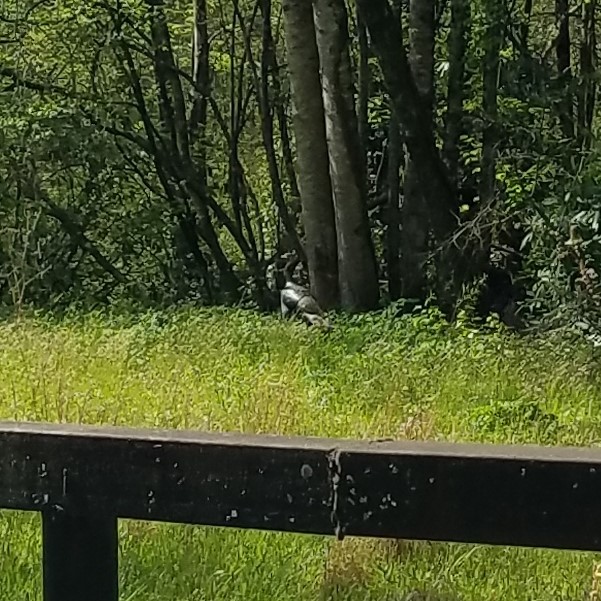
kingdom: Animalia
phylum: Chordata
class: Aves
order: Galliformes
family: Phasianidae
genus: Meleagris
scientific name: Meleagris gallopavo
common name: Wild turkey
